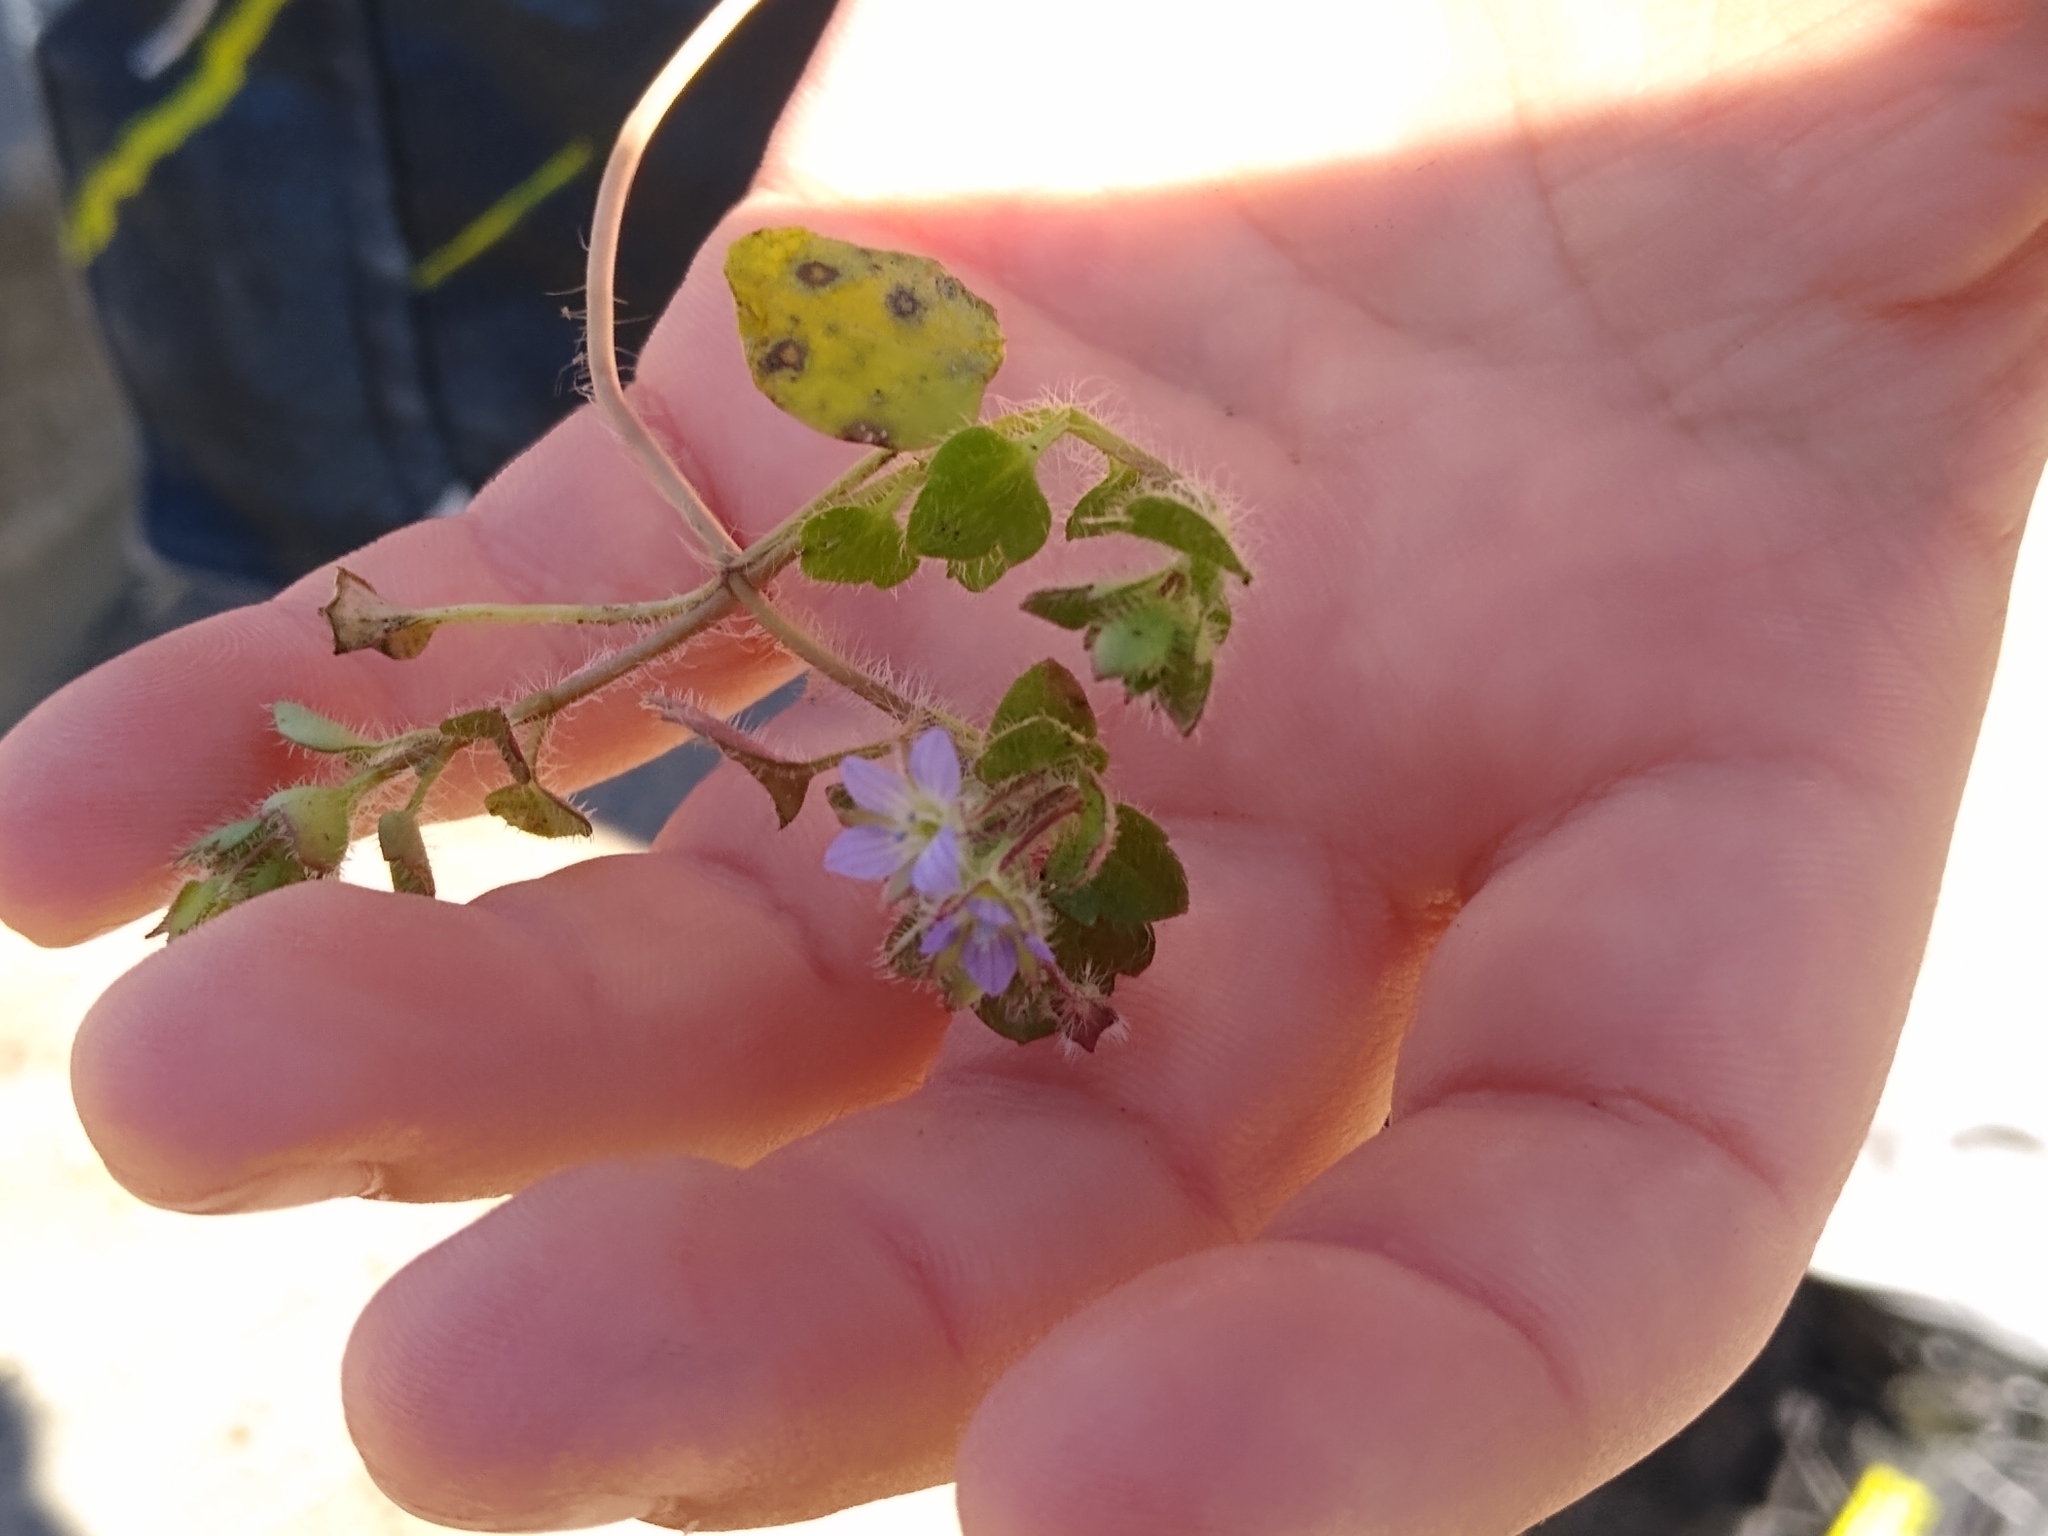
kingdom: Plantae
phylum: Tracheophyta
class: Magnoliopsida
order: Lamiales
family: Plantaginaceae
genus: Veronica
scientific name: Veronica hederifolia
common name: Ivy-leaved speedwell
